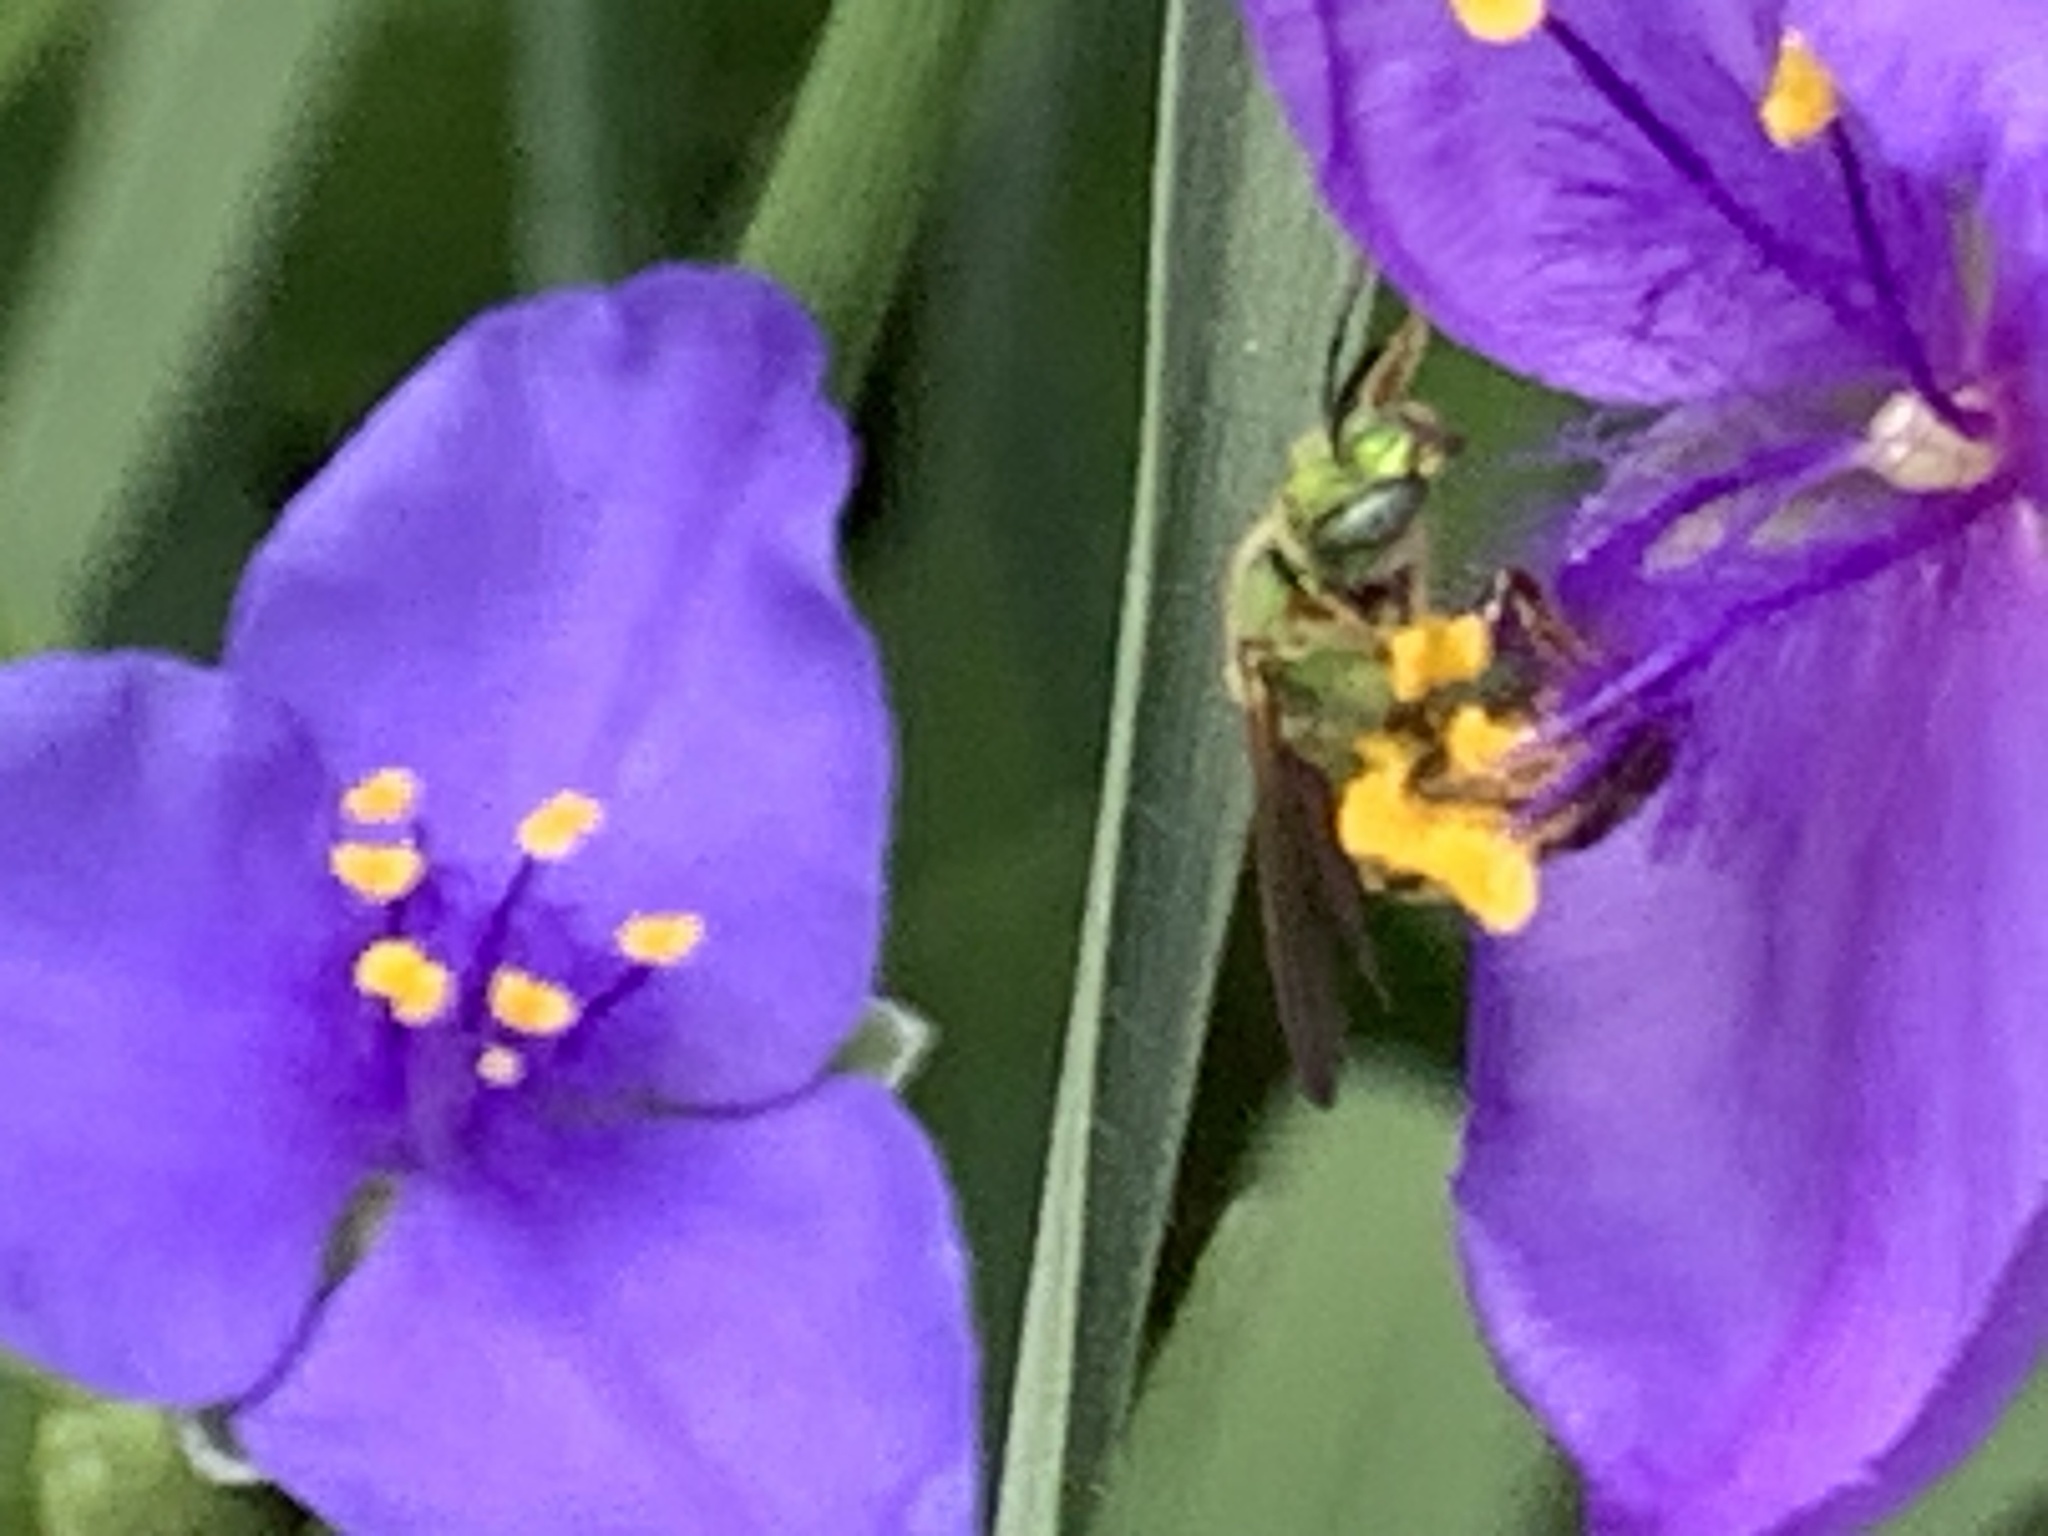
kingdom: Animalia
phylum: Arthropoda
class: Insecta
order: Hymenoptera
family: Halictidae
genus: Agapostemon
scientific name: Agapostemon virescens
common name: Bicolored striped sweat bee
